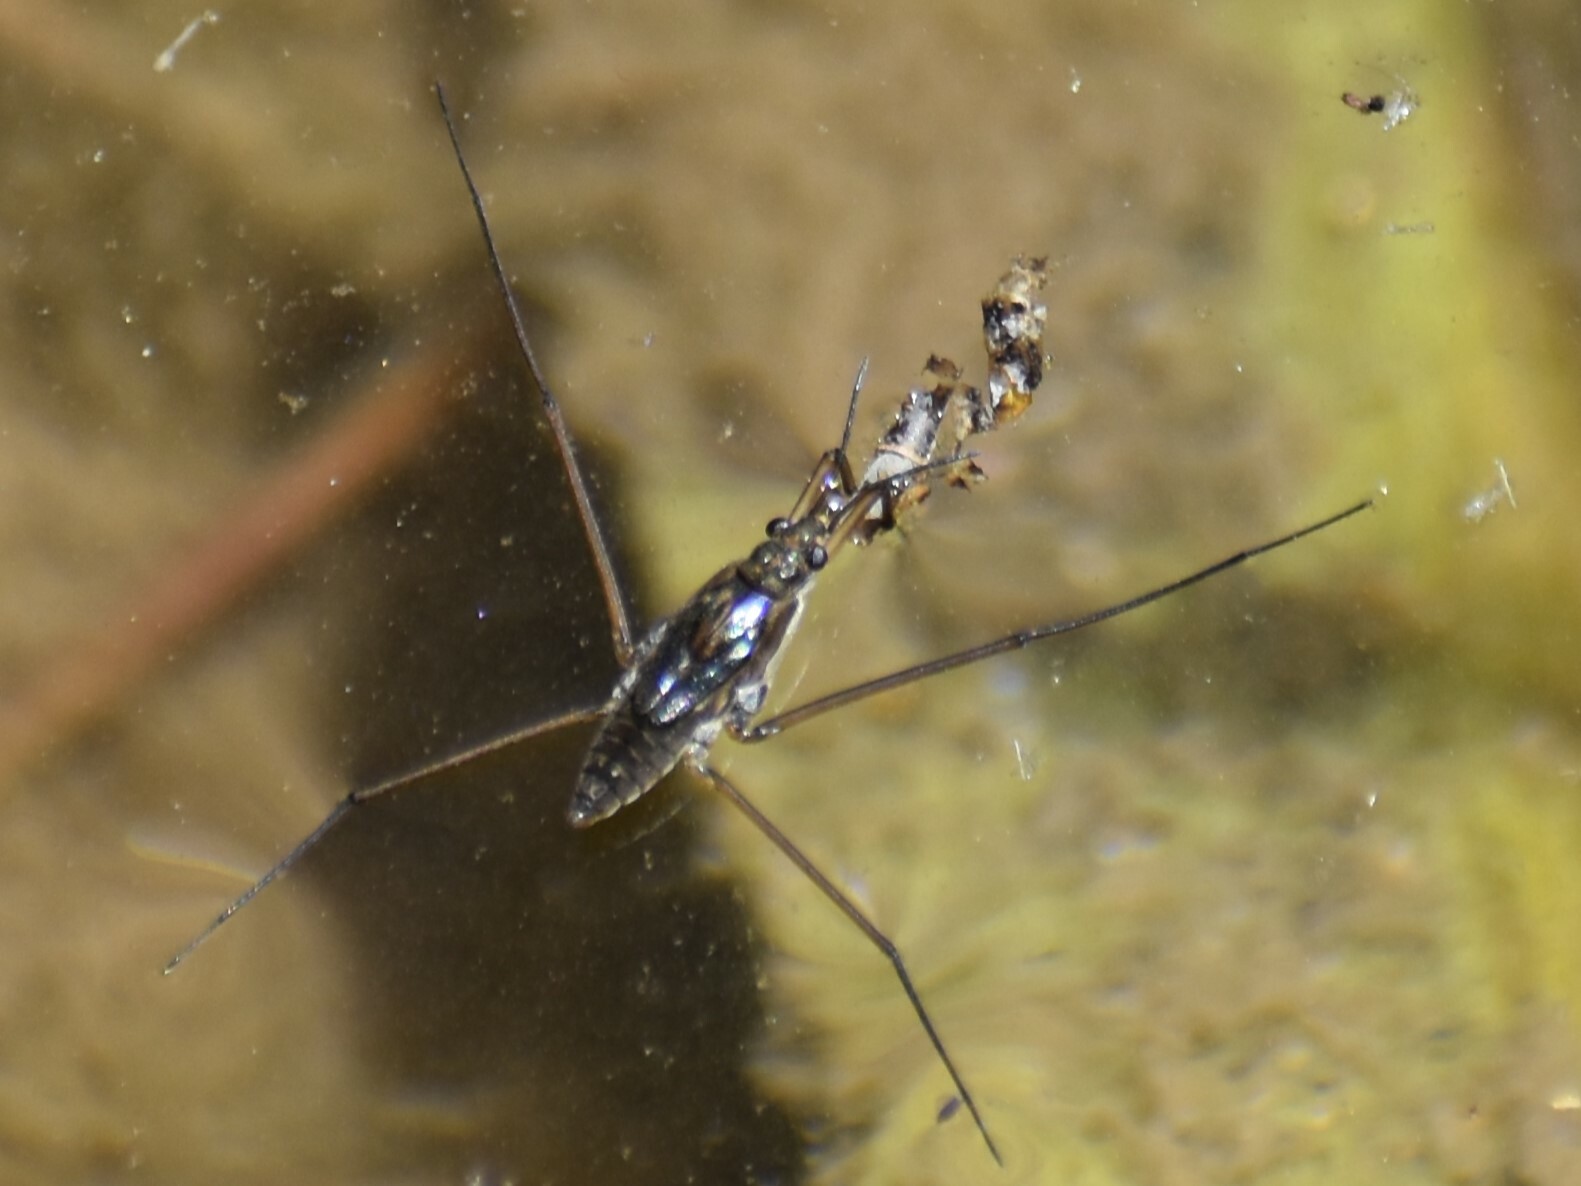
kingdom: Animalia
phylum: Arthropoda
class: Insecta
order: Hemiptera
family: Gerridae
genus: Aquarius
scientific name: Aquarius remigis
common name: Common water strider
